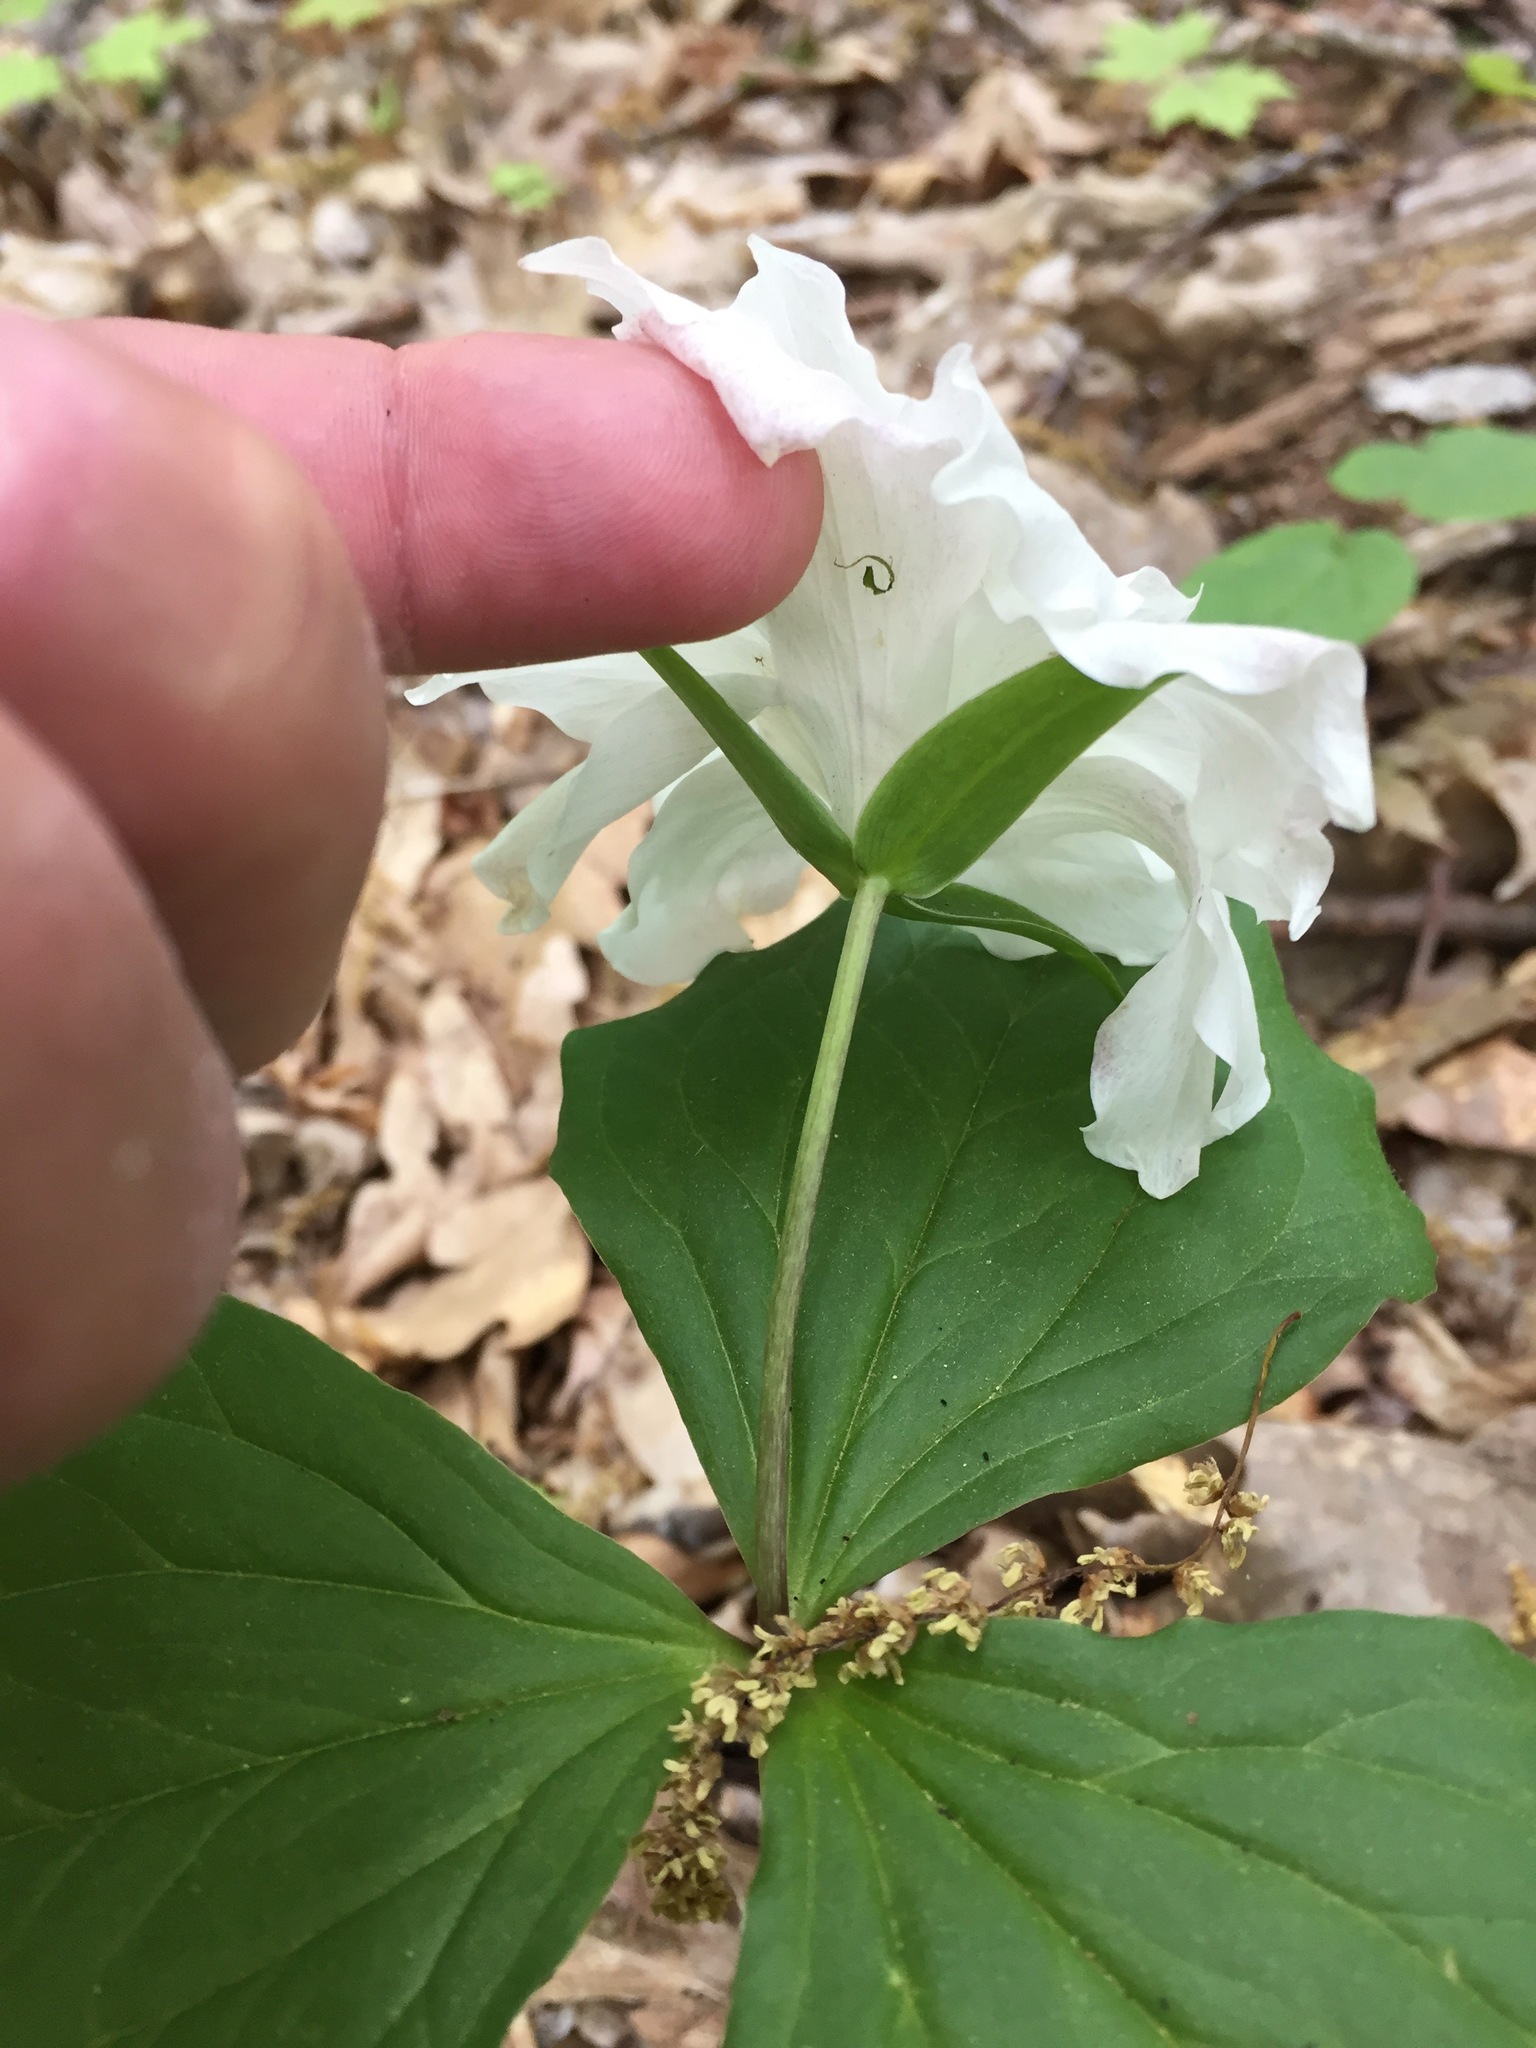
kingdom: Plantae
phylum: Tracheophyta
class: Liliopsida
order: Liliales
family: Melanthiaceae
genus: Trillium
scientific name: Trillium grandiflorum
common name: Great white trillium
